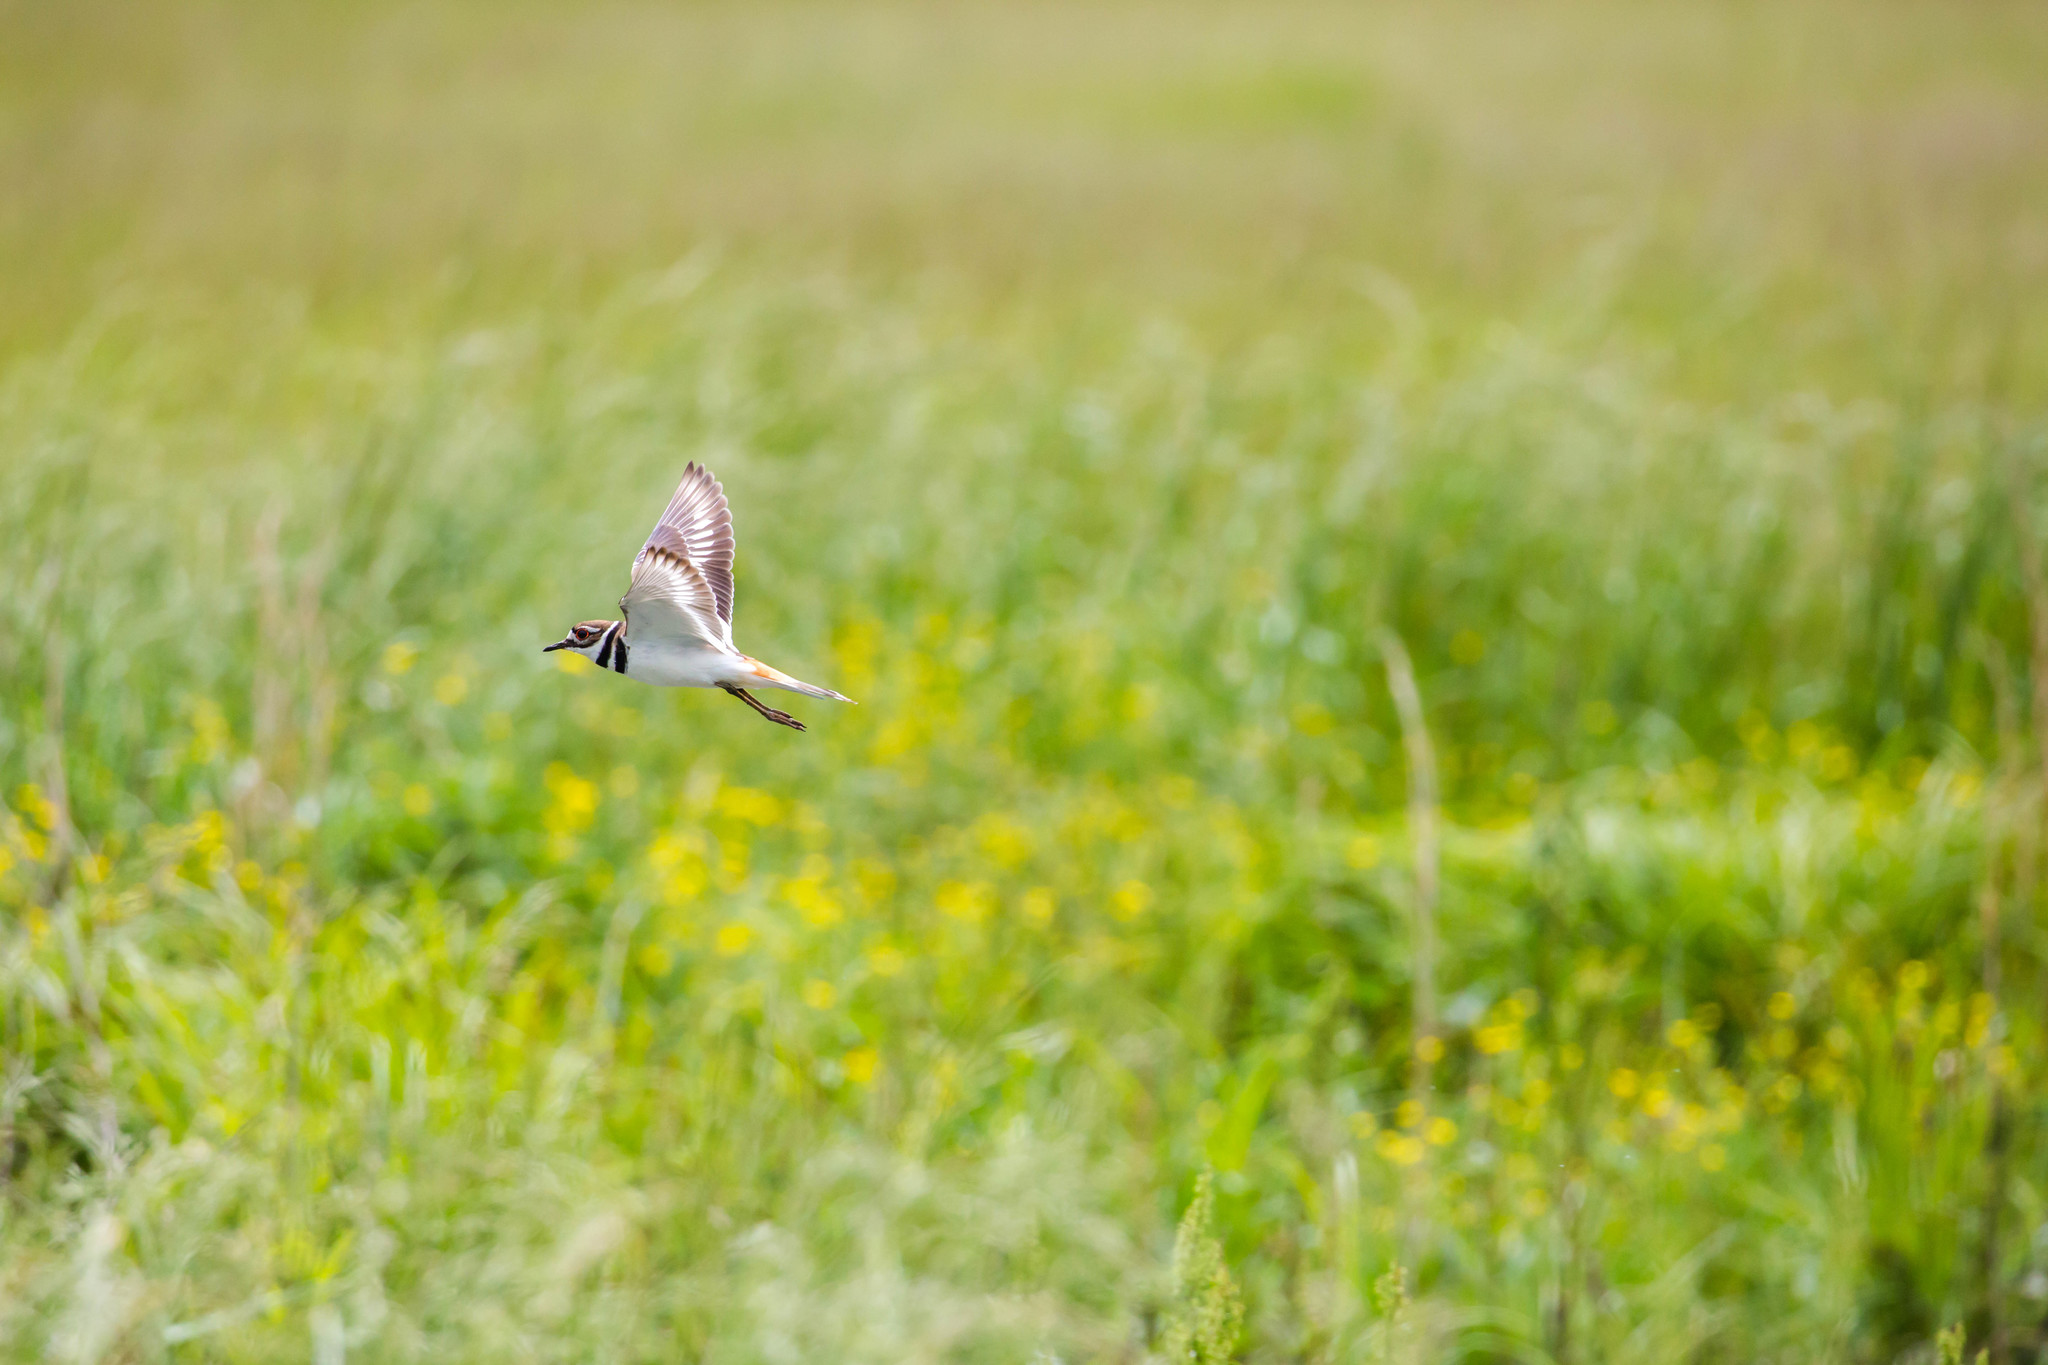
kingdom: Animalia
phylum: Chordata
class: Aves
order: Charadriiformes
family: Charadriidae
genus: Charadrius
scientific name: Charadrius vociferus
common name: Killdeer
